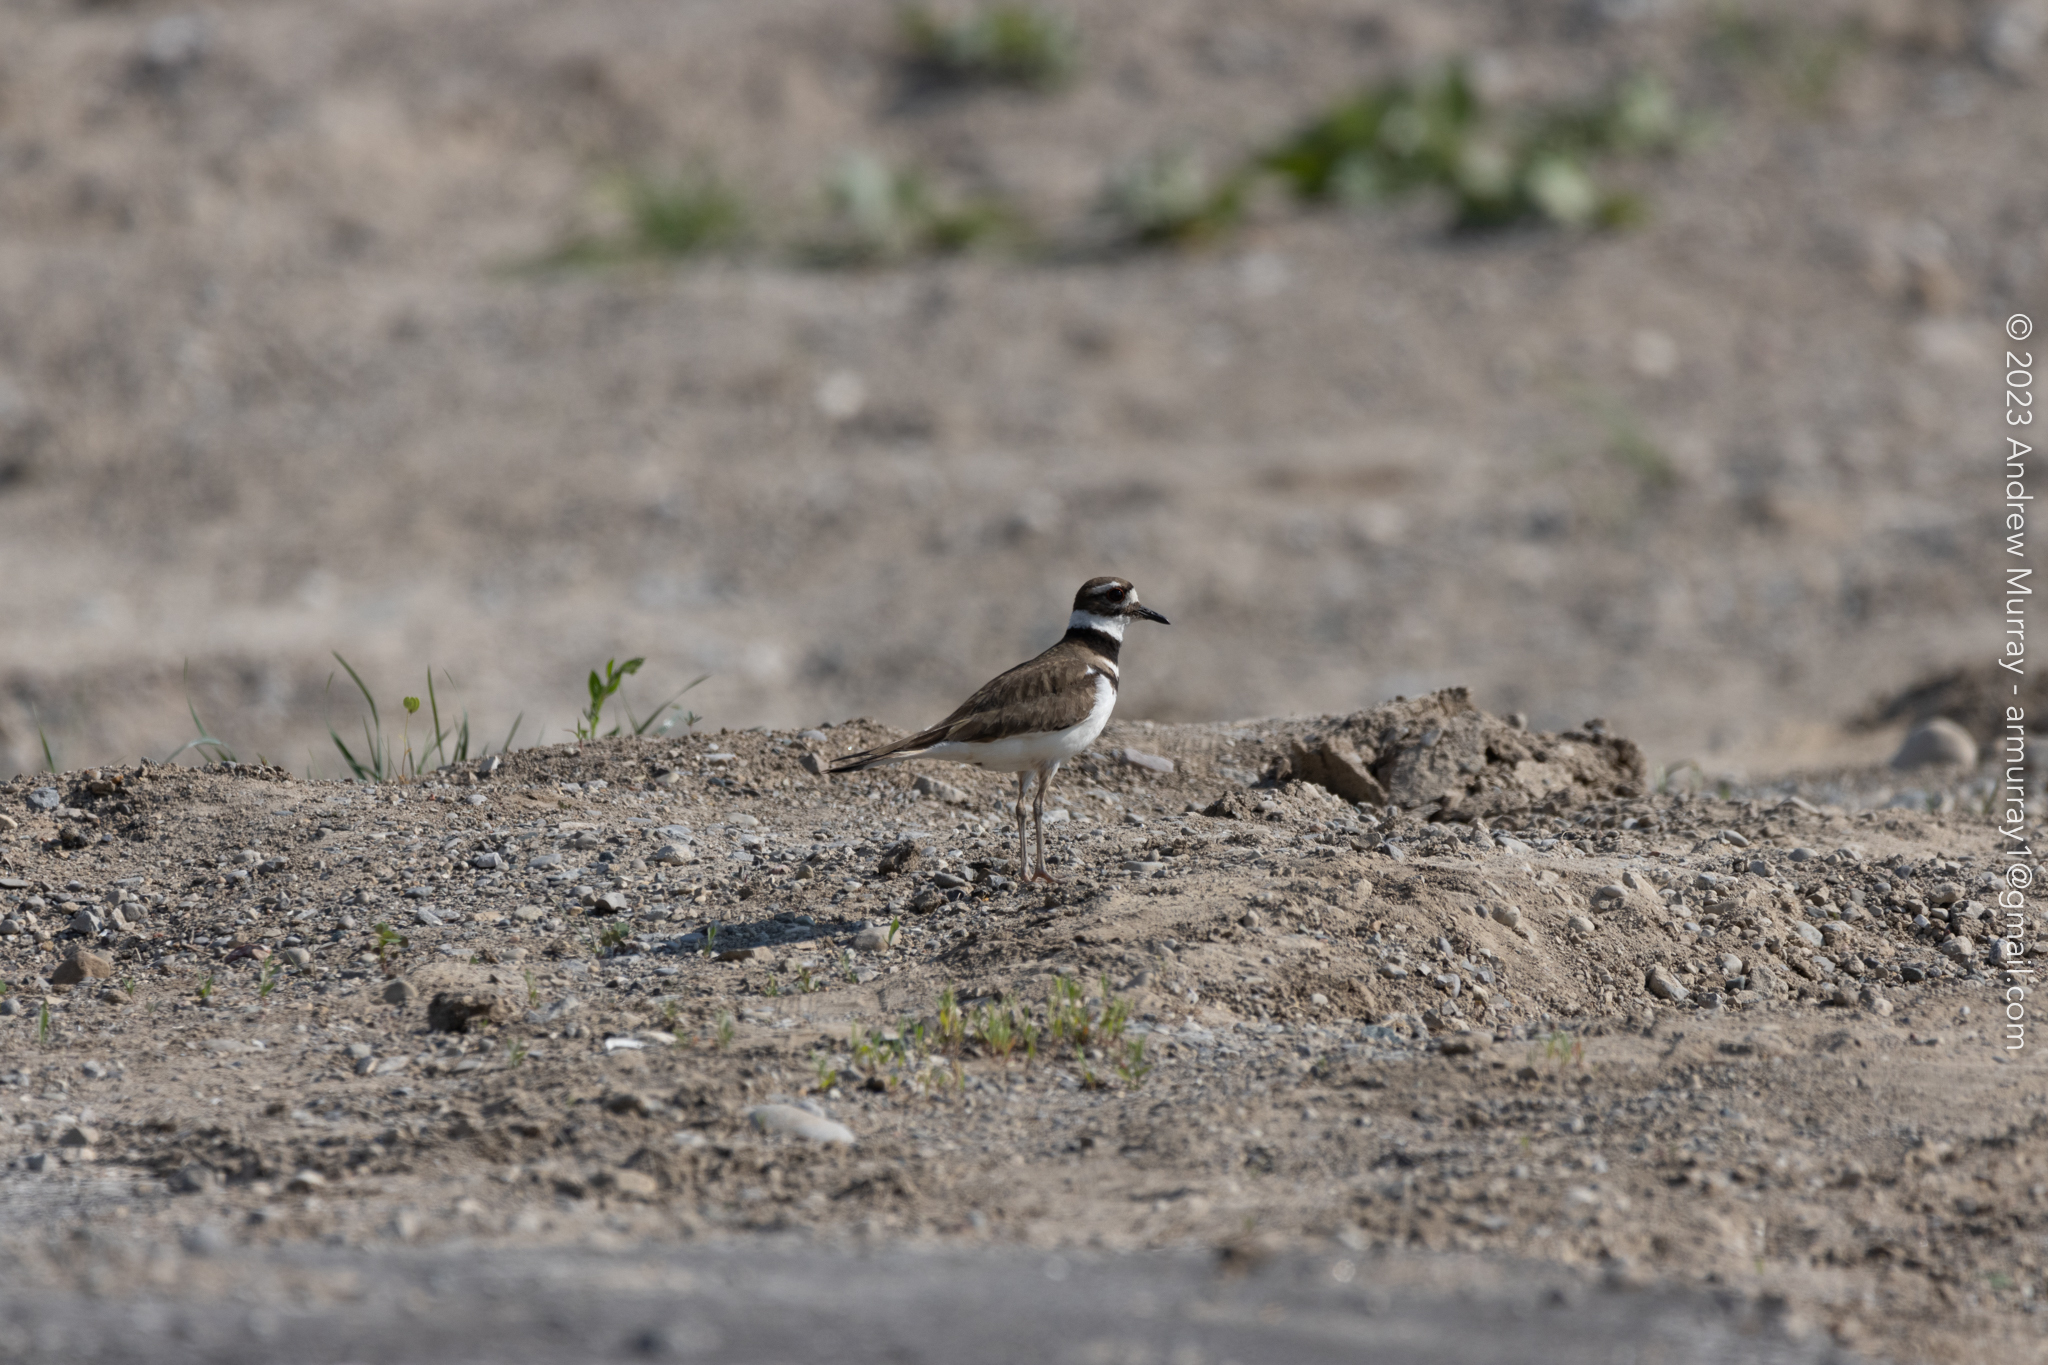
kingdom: Animalia
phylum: Chordata
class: Aves
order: Charadriiformes
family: Charadriidae
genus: Charadrius
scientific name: Charadrius vociferus
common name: Killdeer
